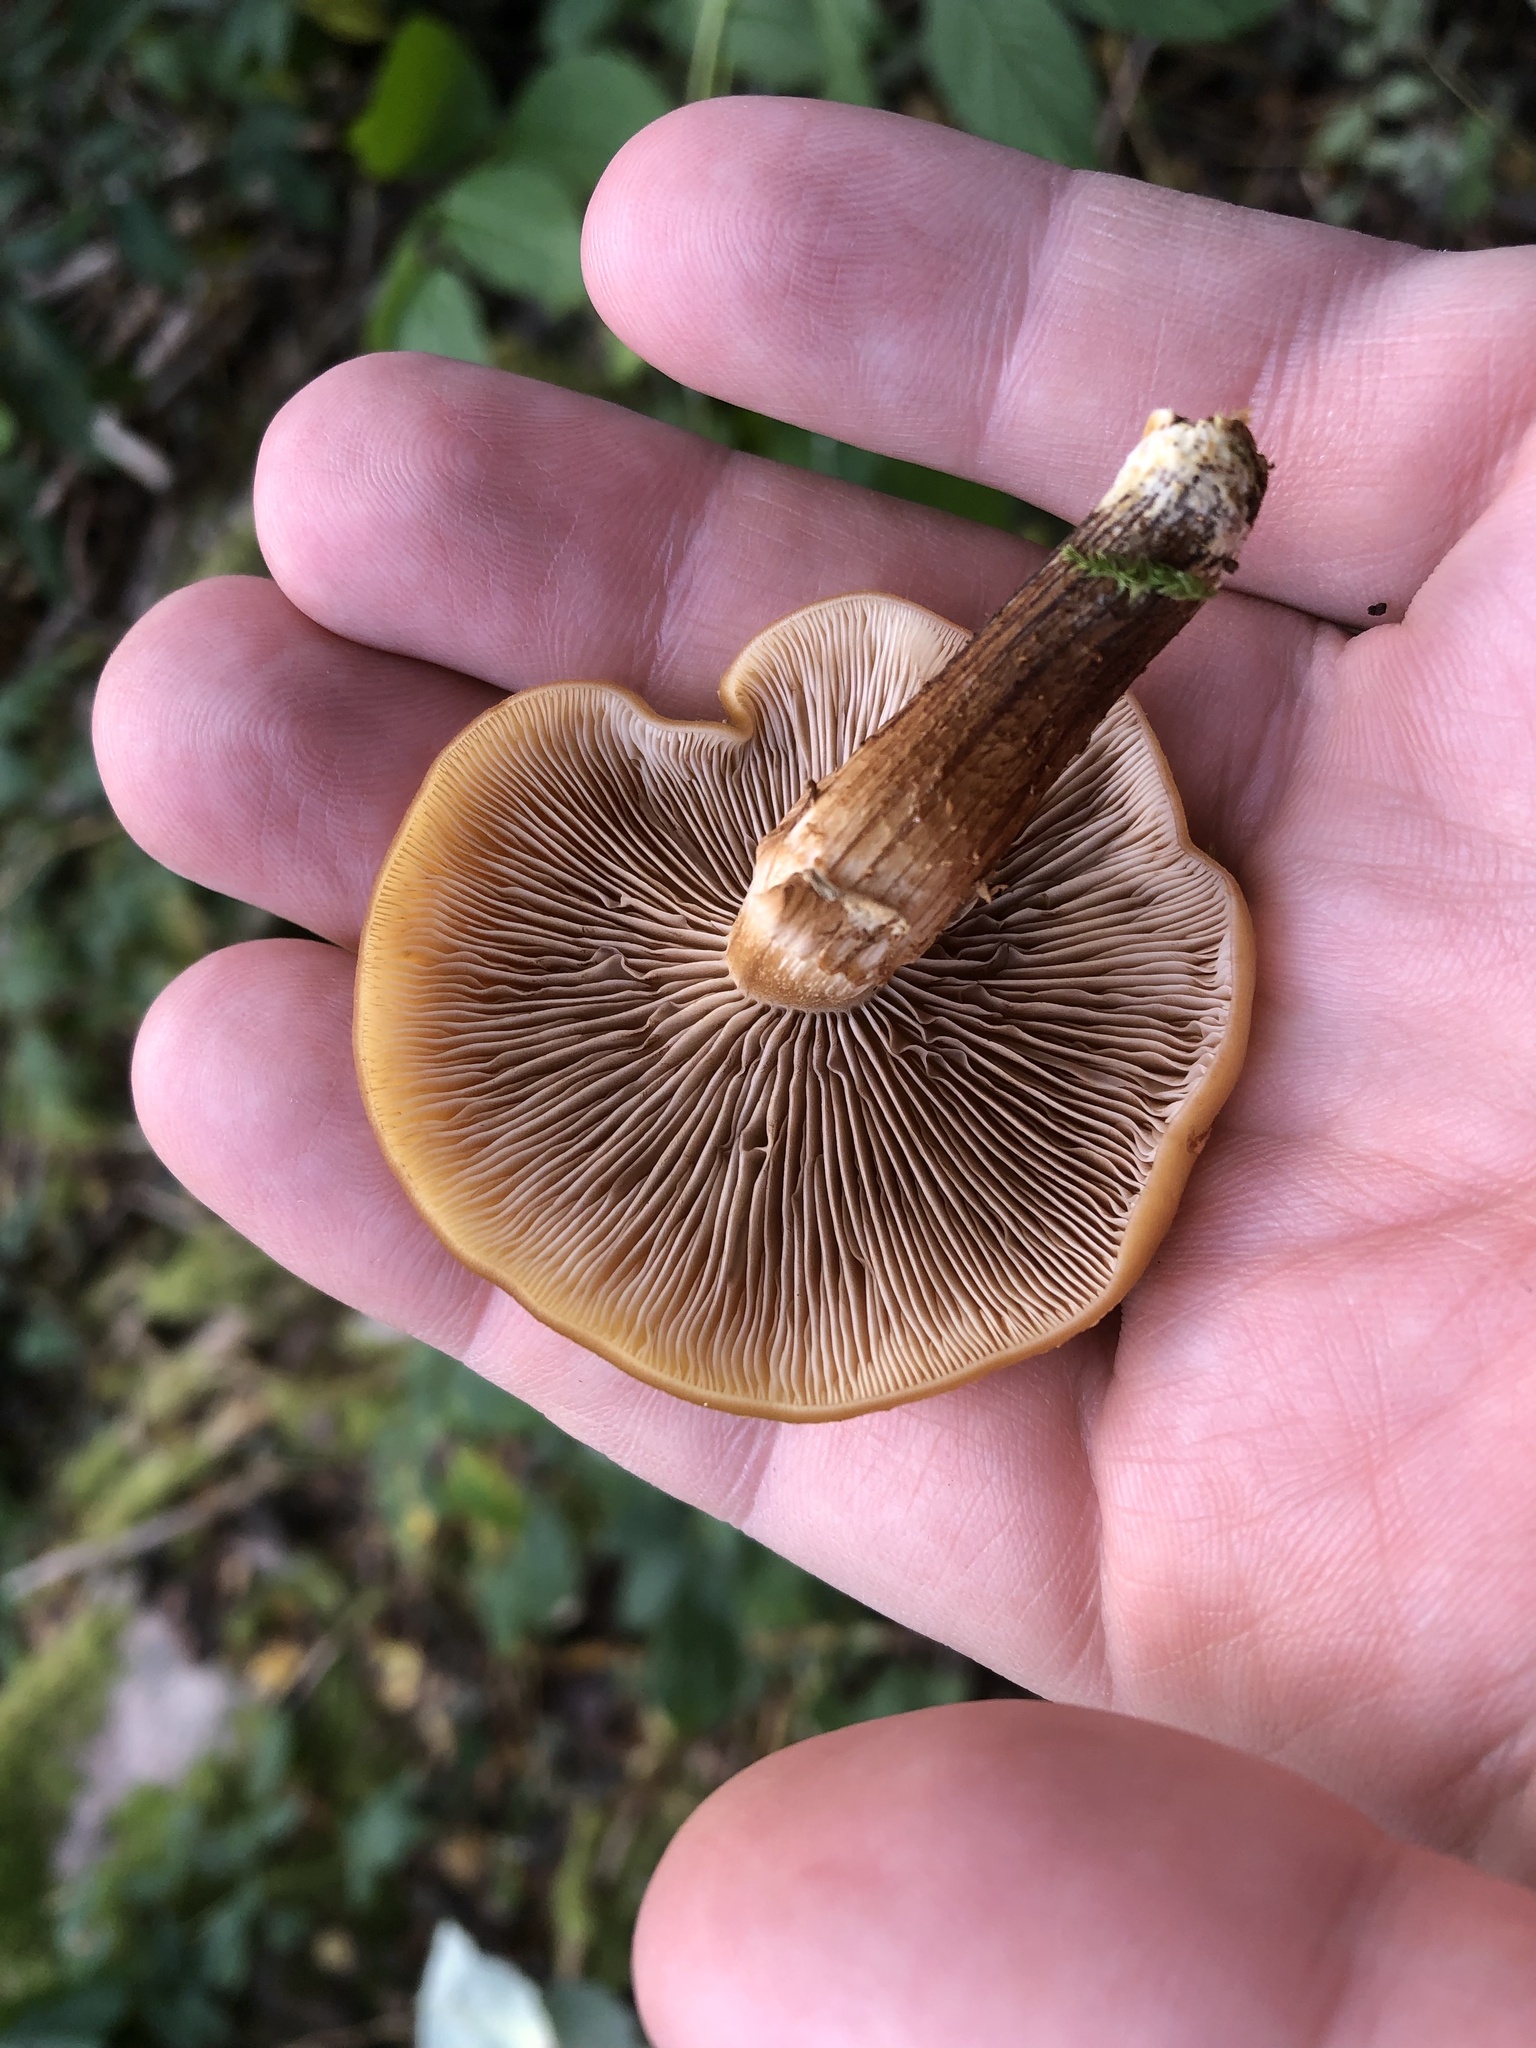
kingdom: Fungi
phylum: Basidiomycota
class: Agaricomycetes
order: Agaricales
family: Strophariaceae
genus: Kuehneromyces
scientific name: Kuehneromyces mutabilis
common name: Sheathed woodtuft
